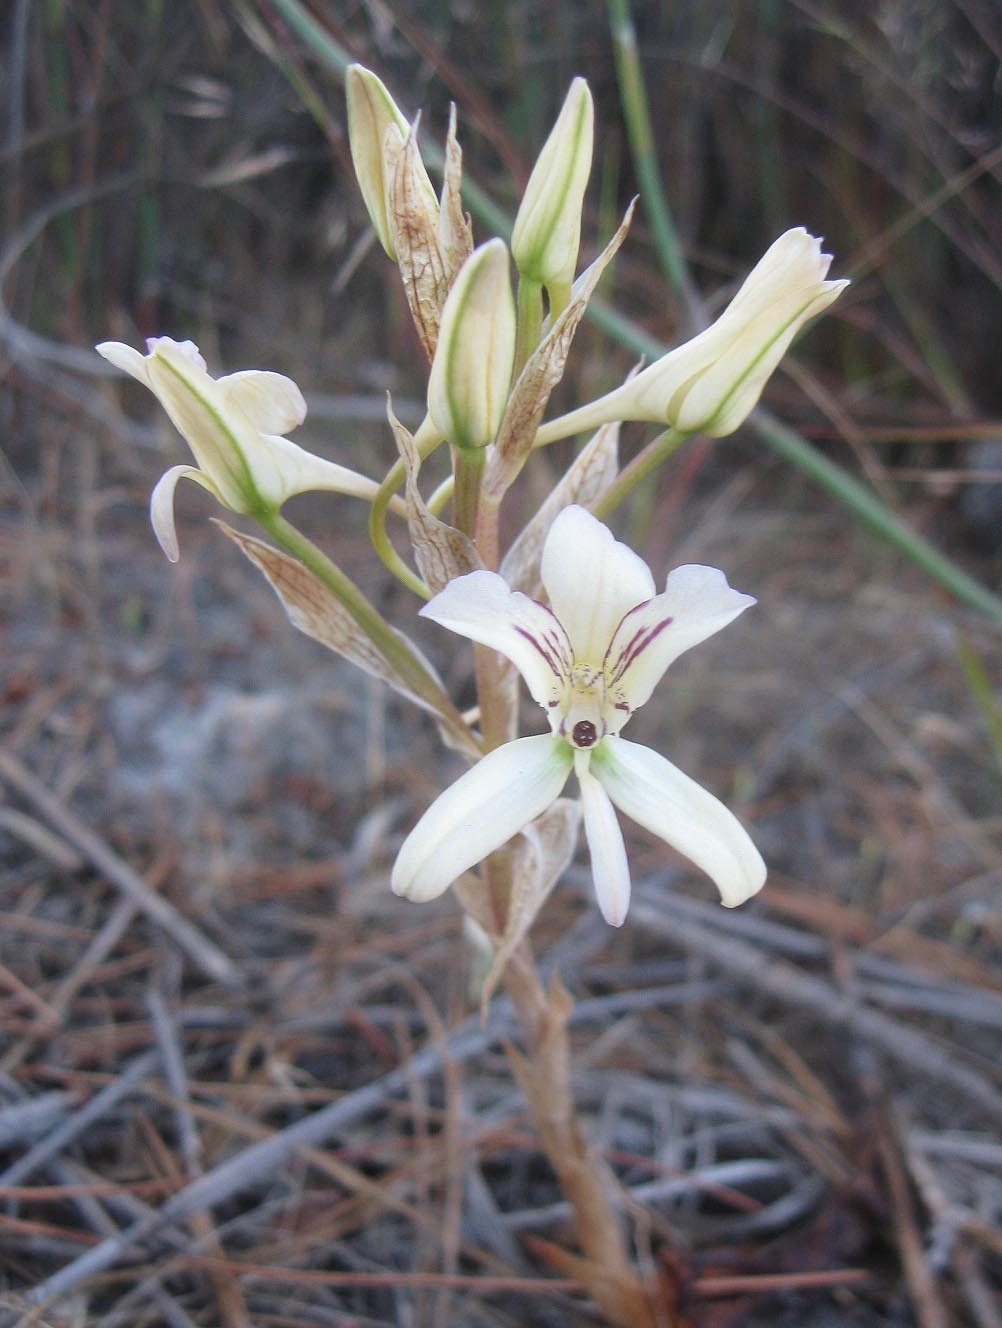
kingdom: Plantae
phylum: Tracheophyta
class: Liliopsida
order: Asparagales
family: Orchidaceae
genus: Disa
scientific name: Disa harveyana
